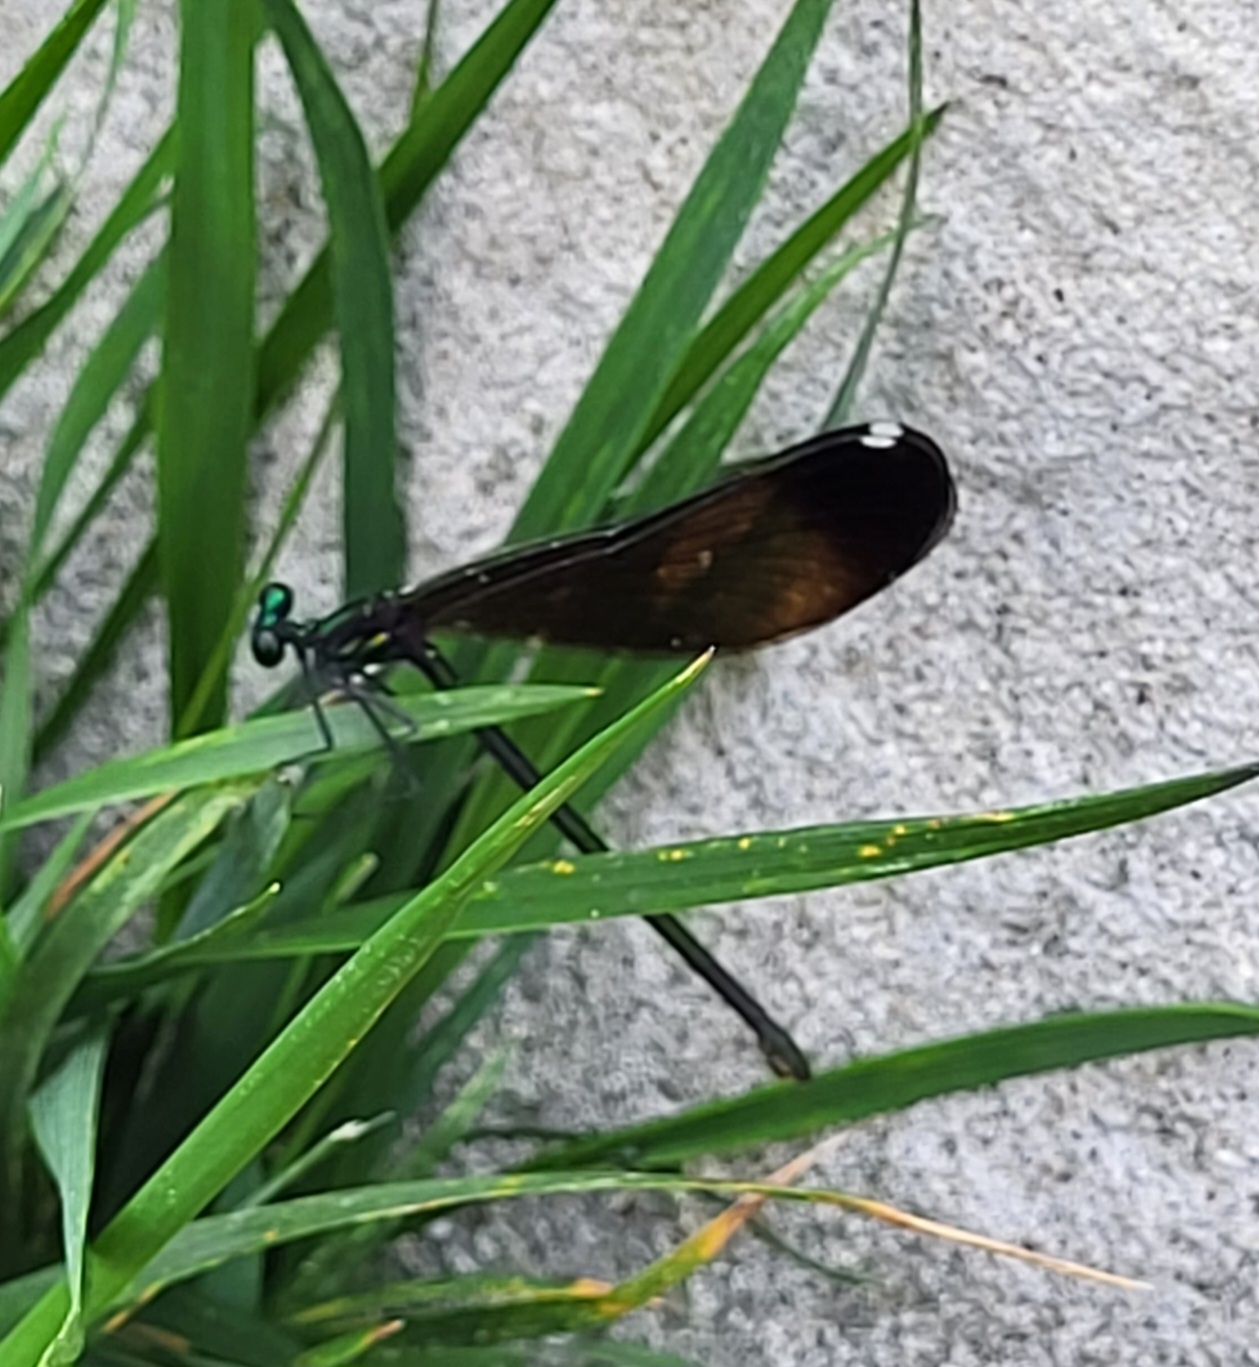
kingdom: Animalia
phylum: Arthropoda
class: Insecta
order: Odonata
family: Calopterygidae
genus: Calopteryx
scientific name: Calopteryx maculata
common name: Ebony jewelwing
